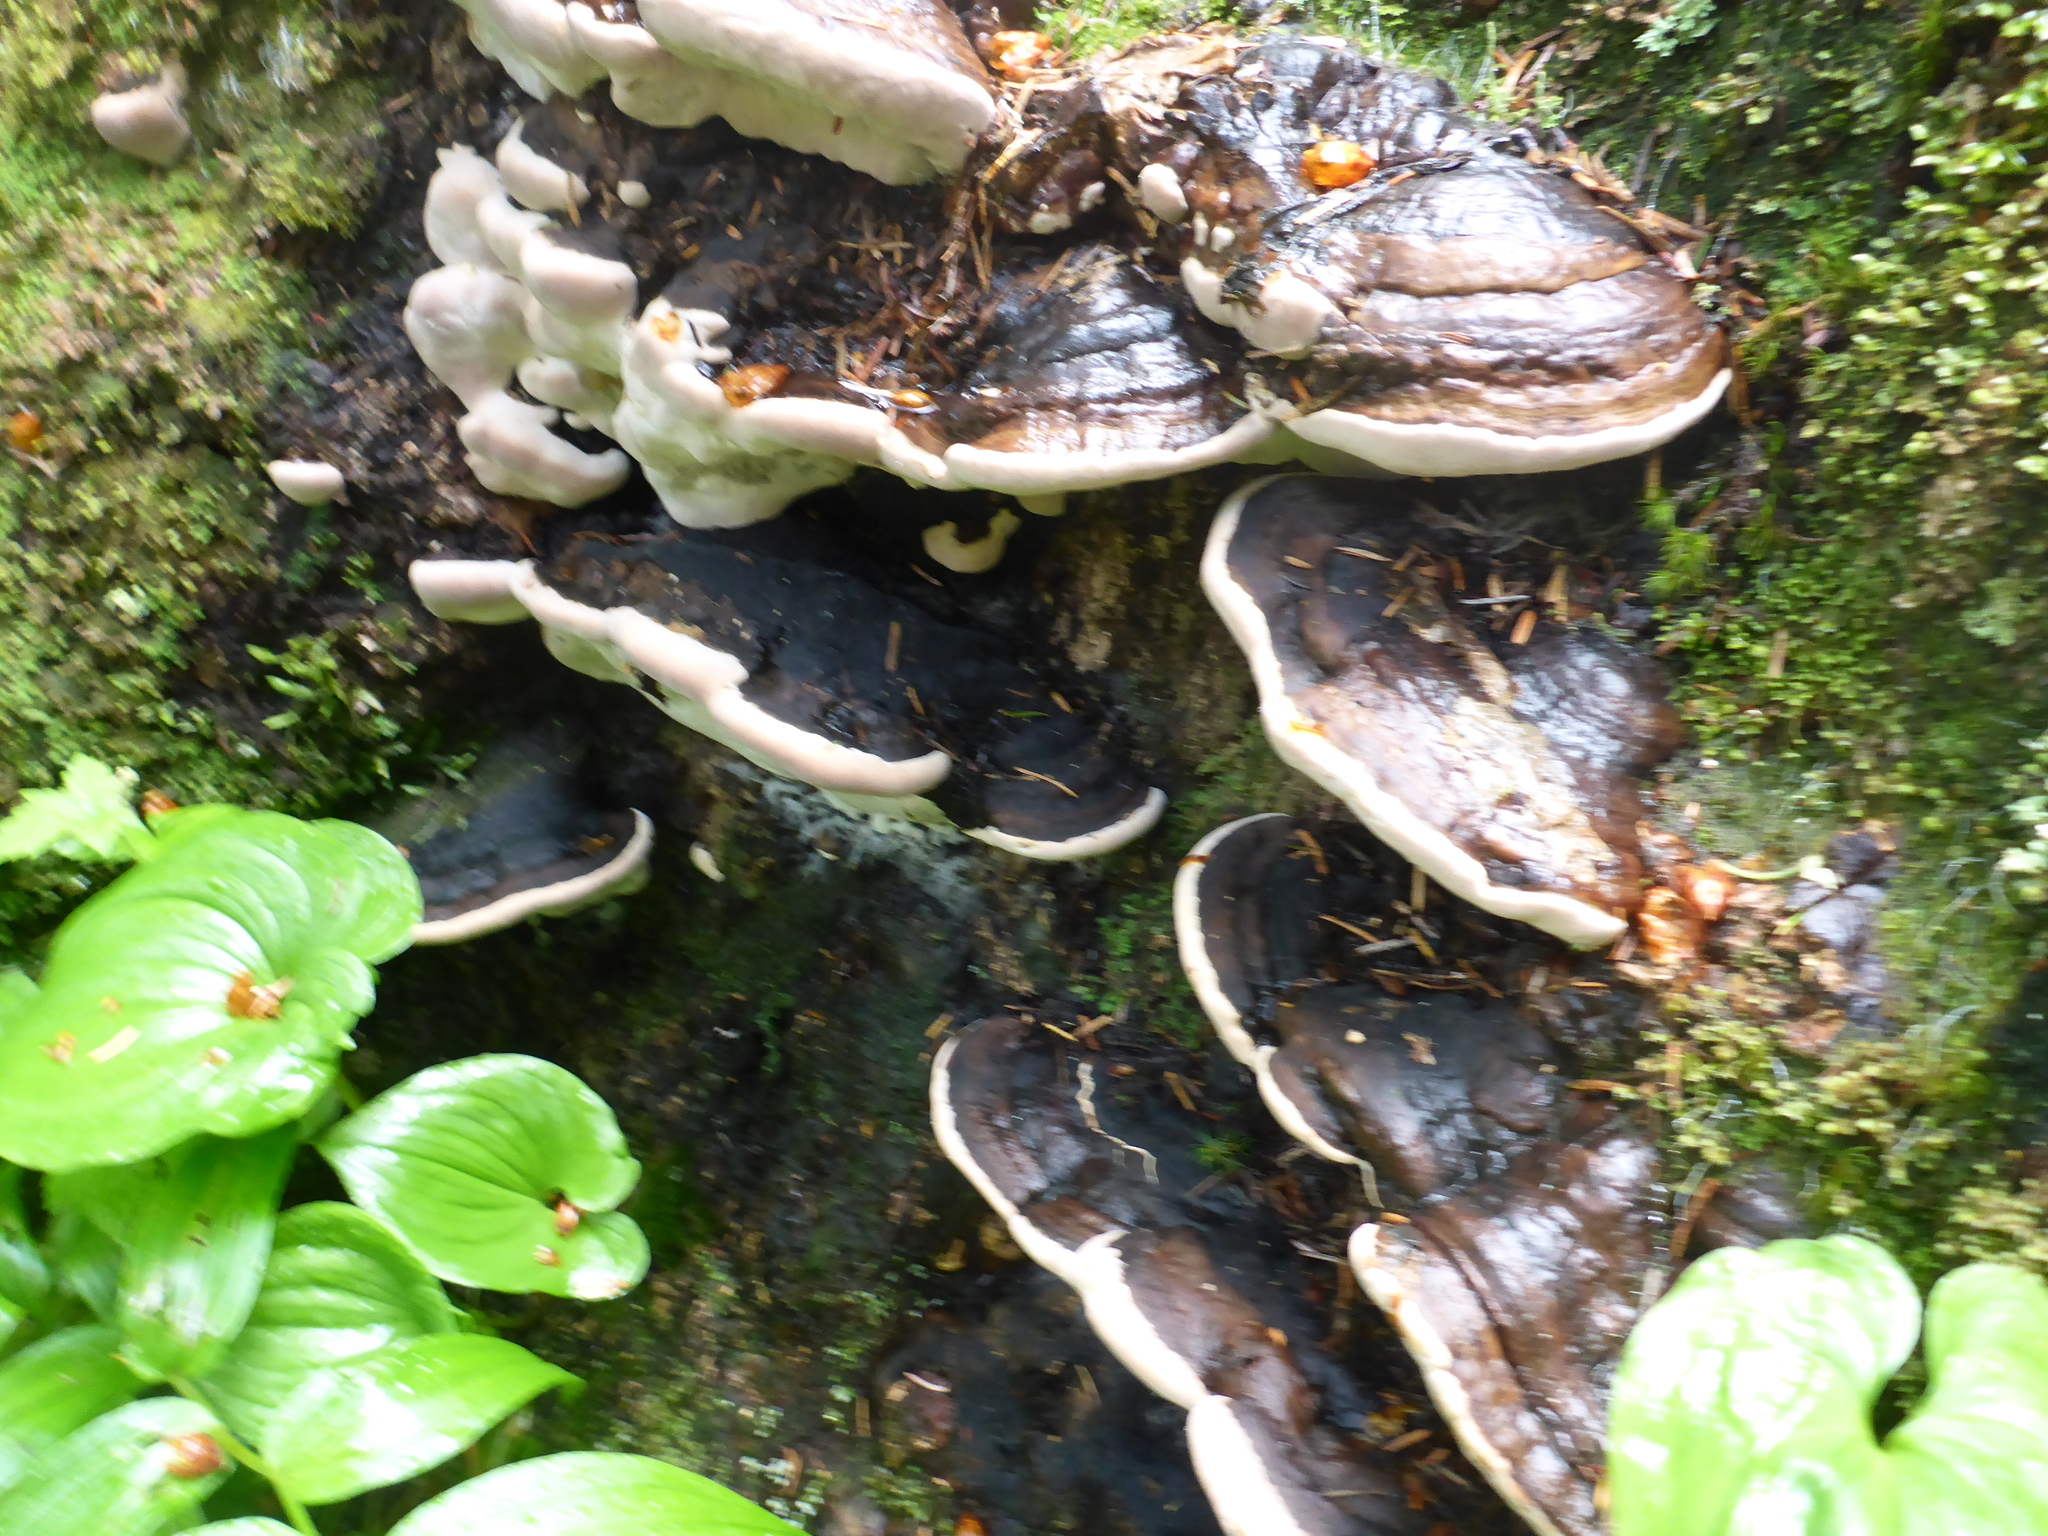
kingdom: Fungi
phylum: Basidiomycota
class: Agaricomycetes
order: Polyporales
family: Fomitopsidaceae
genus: Fomitopsis
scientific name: Fomitopsis ochracea
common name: American brown fomitopsis
